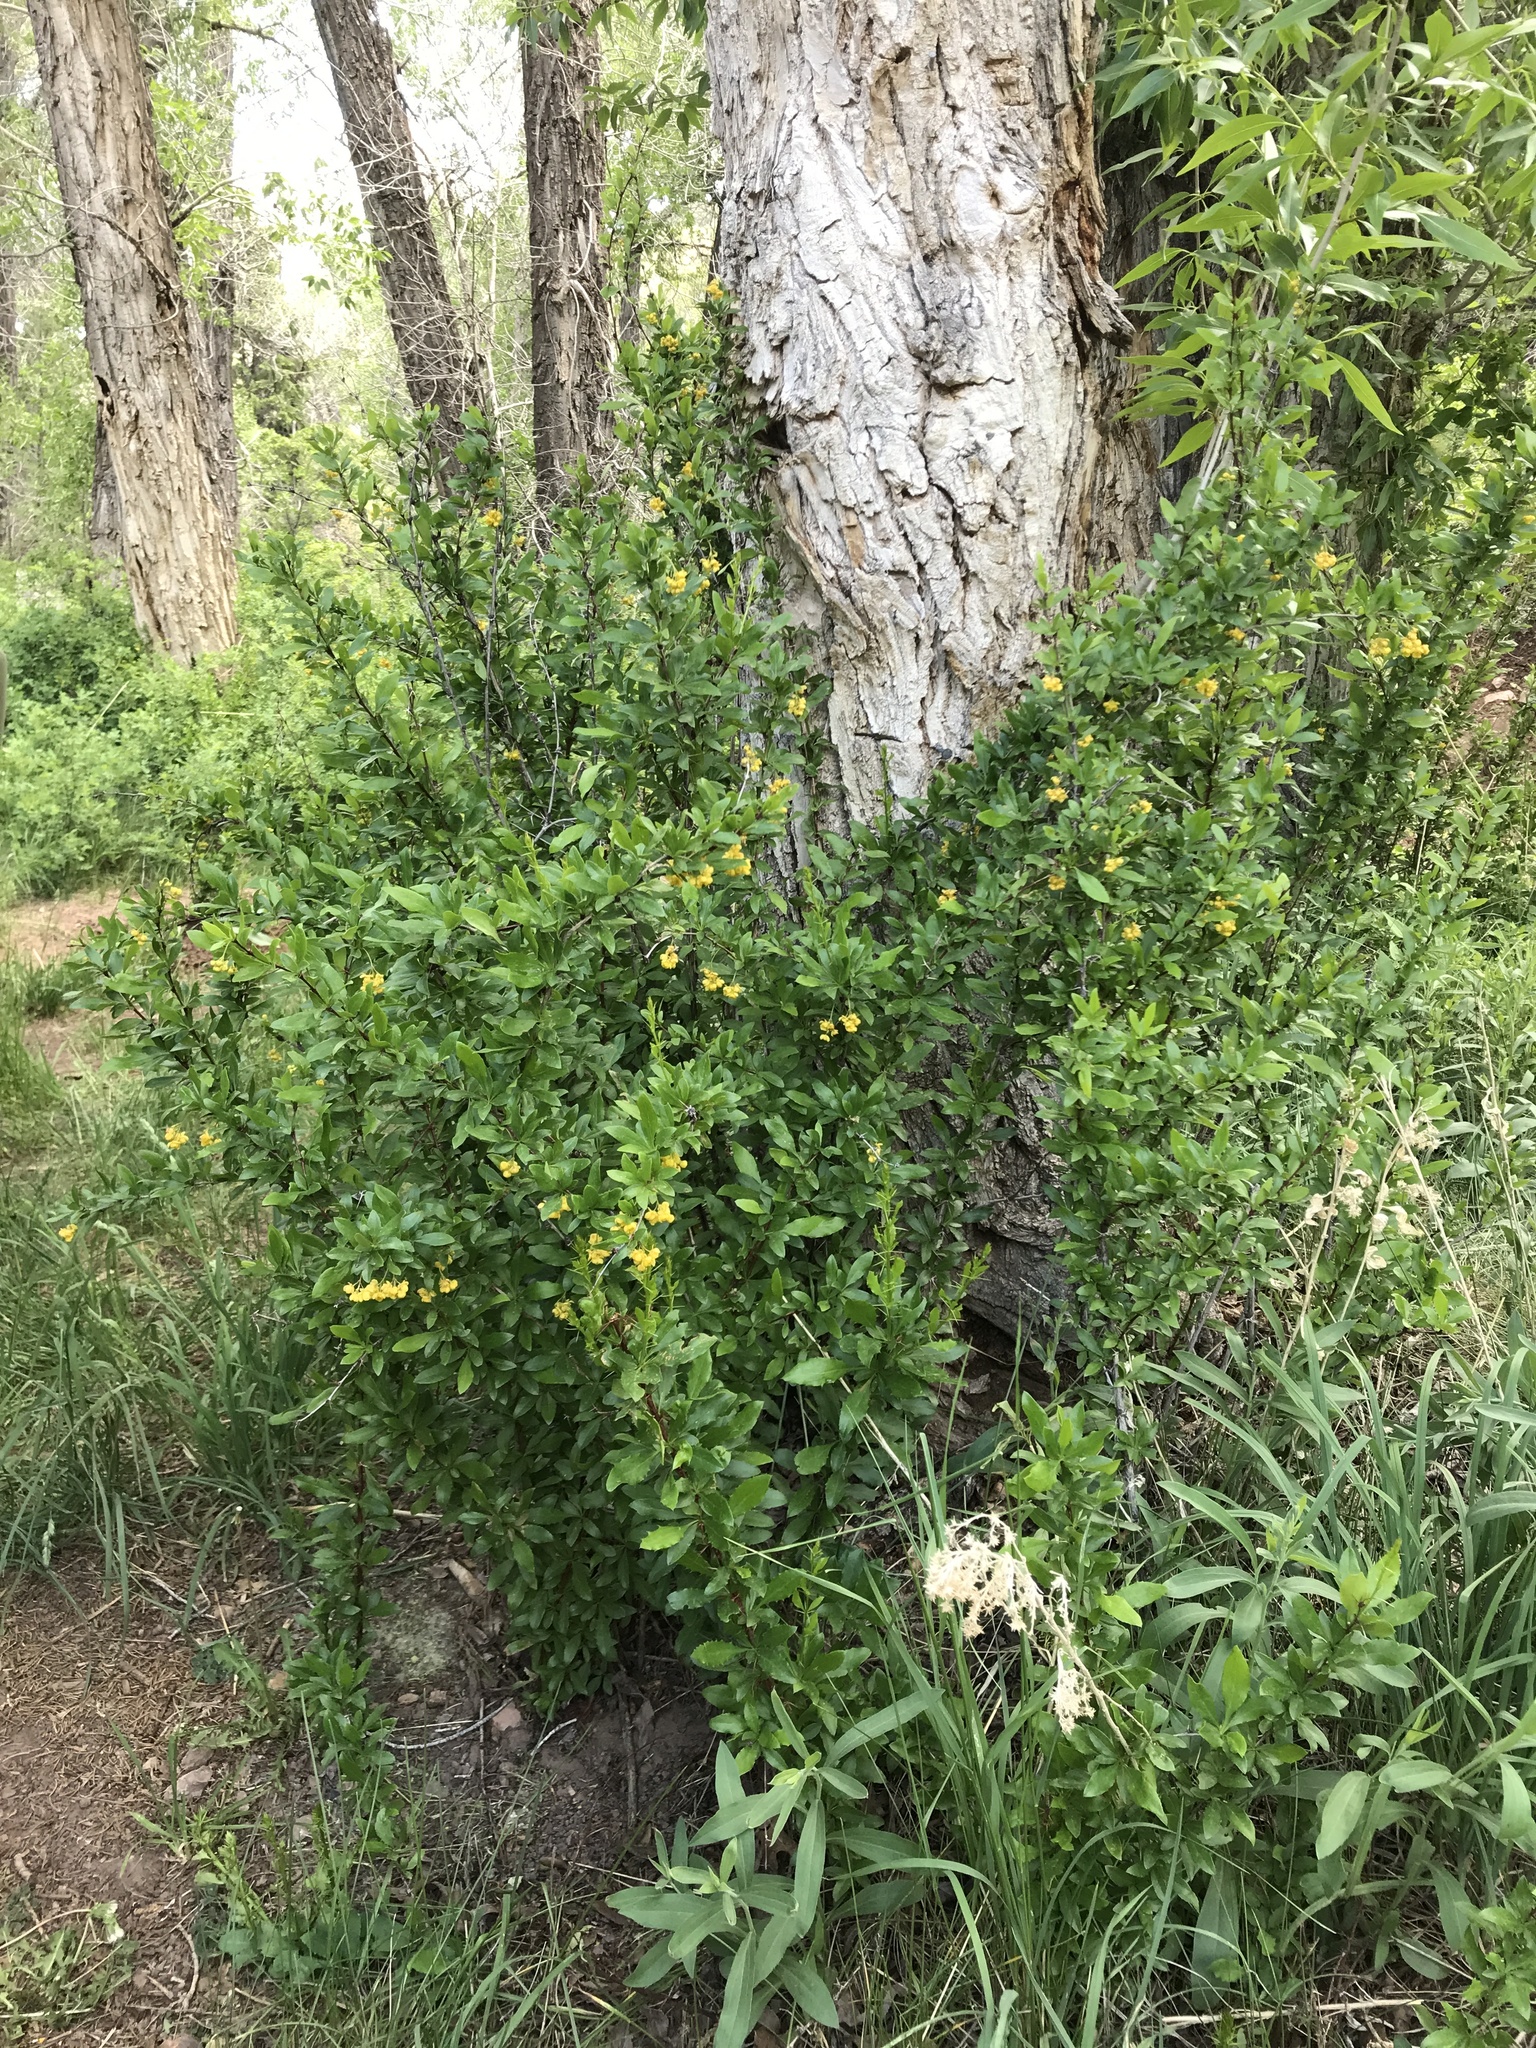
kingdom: Plantae
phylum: Tracheophyta
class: Magnoliopsida
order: Ranunculales
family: Berberidaceae
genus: Berberis
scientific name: Berberis fendleri
